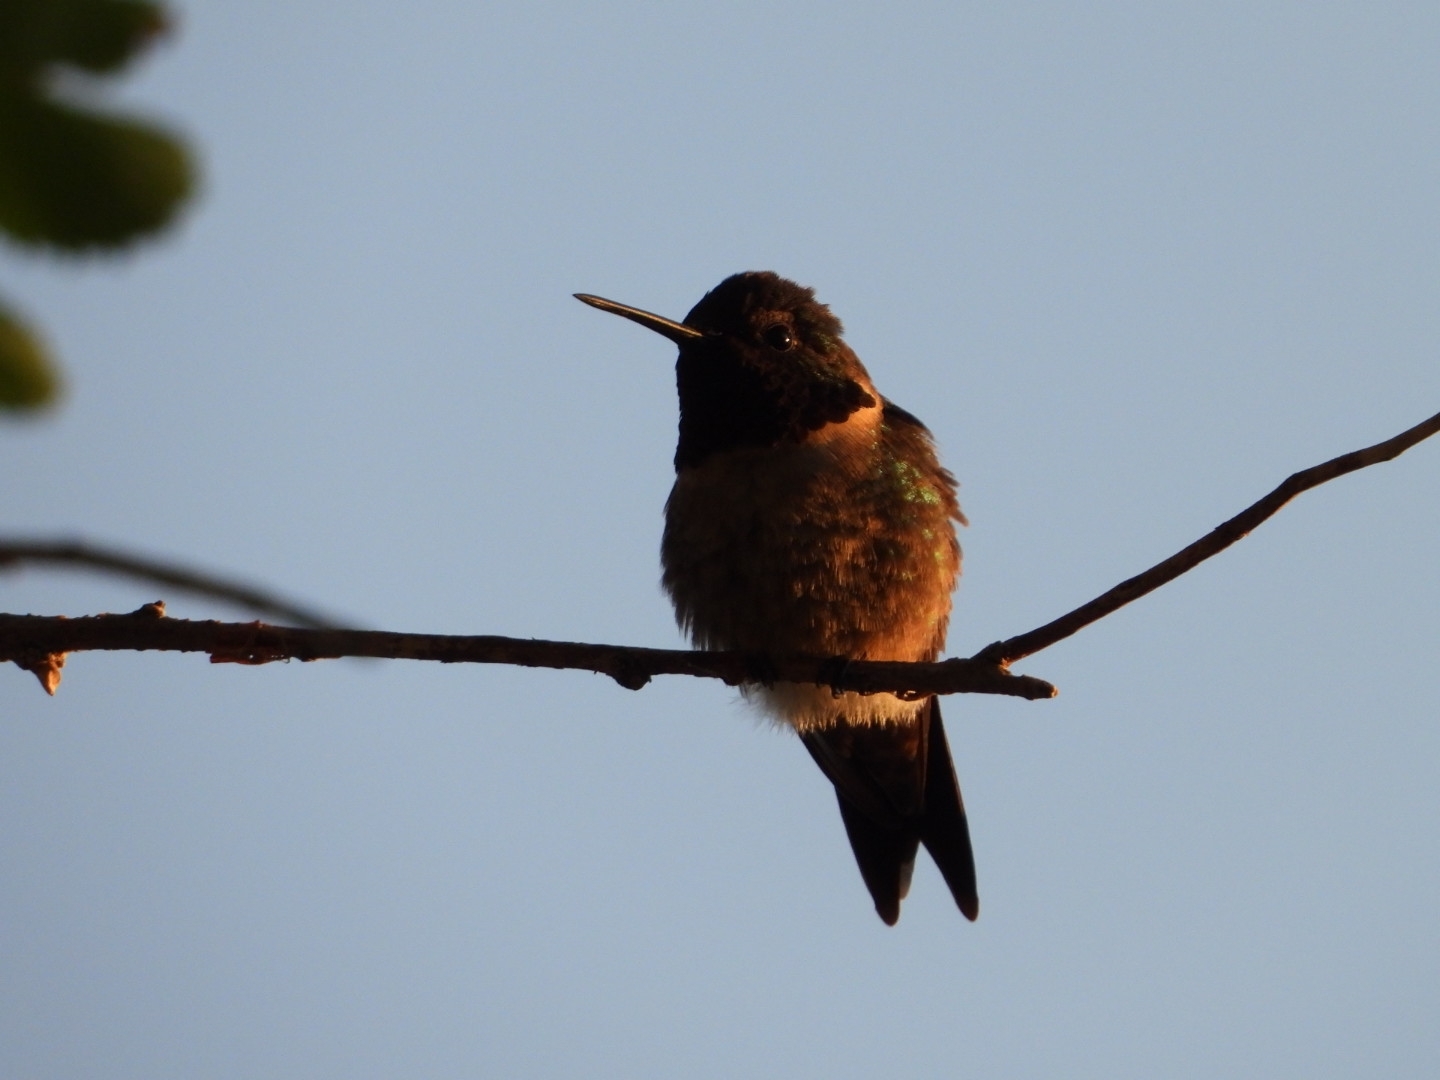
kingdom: Animalia
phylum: Chordata
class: Aves
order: Apodiformes
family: Trochilidae
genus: Archilochus
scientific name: Archilochus colubris
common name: Ruby-throated hummingbird
